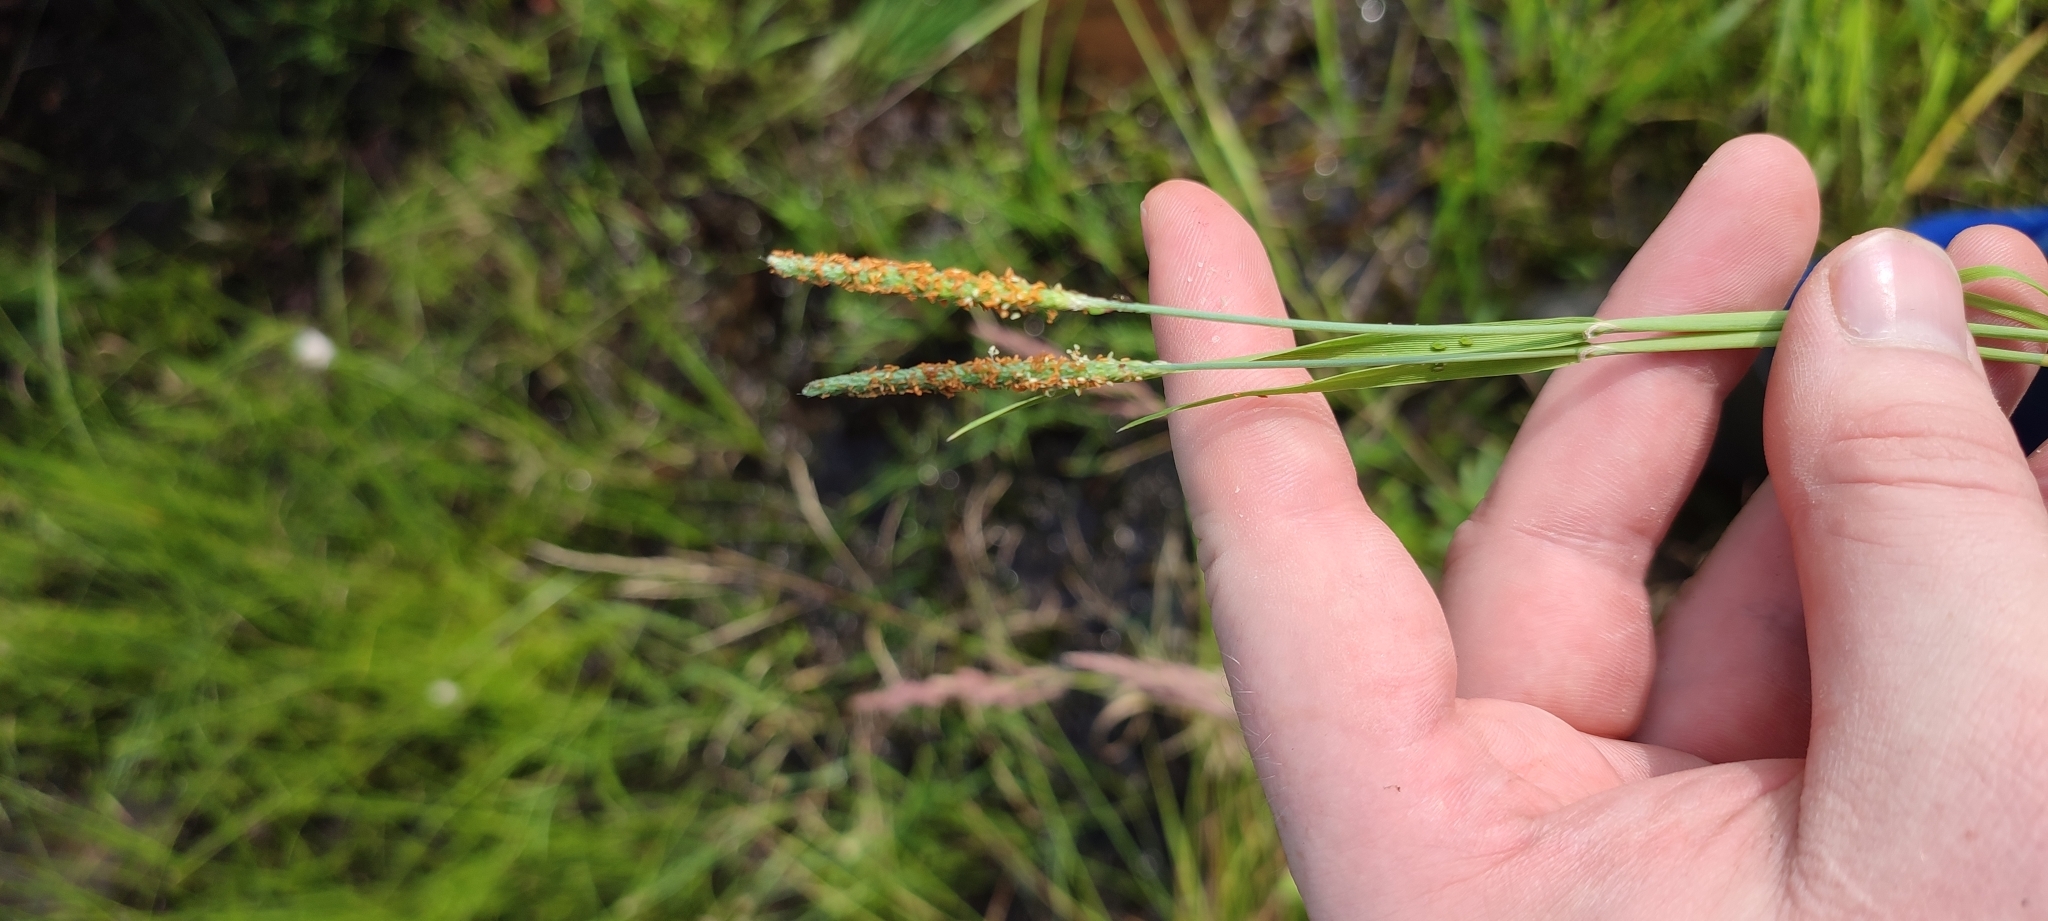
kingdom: Plantae
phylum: Tracheophyta
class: Liliopsida
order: Poales
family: Poaceae
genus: Alopecurus
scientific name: Alopecurus aequalis
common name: Orange foxtail
